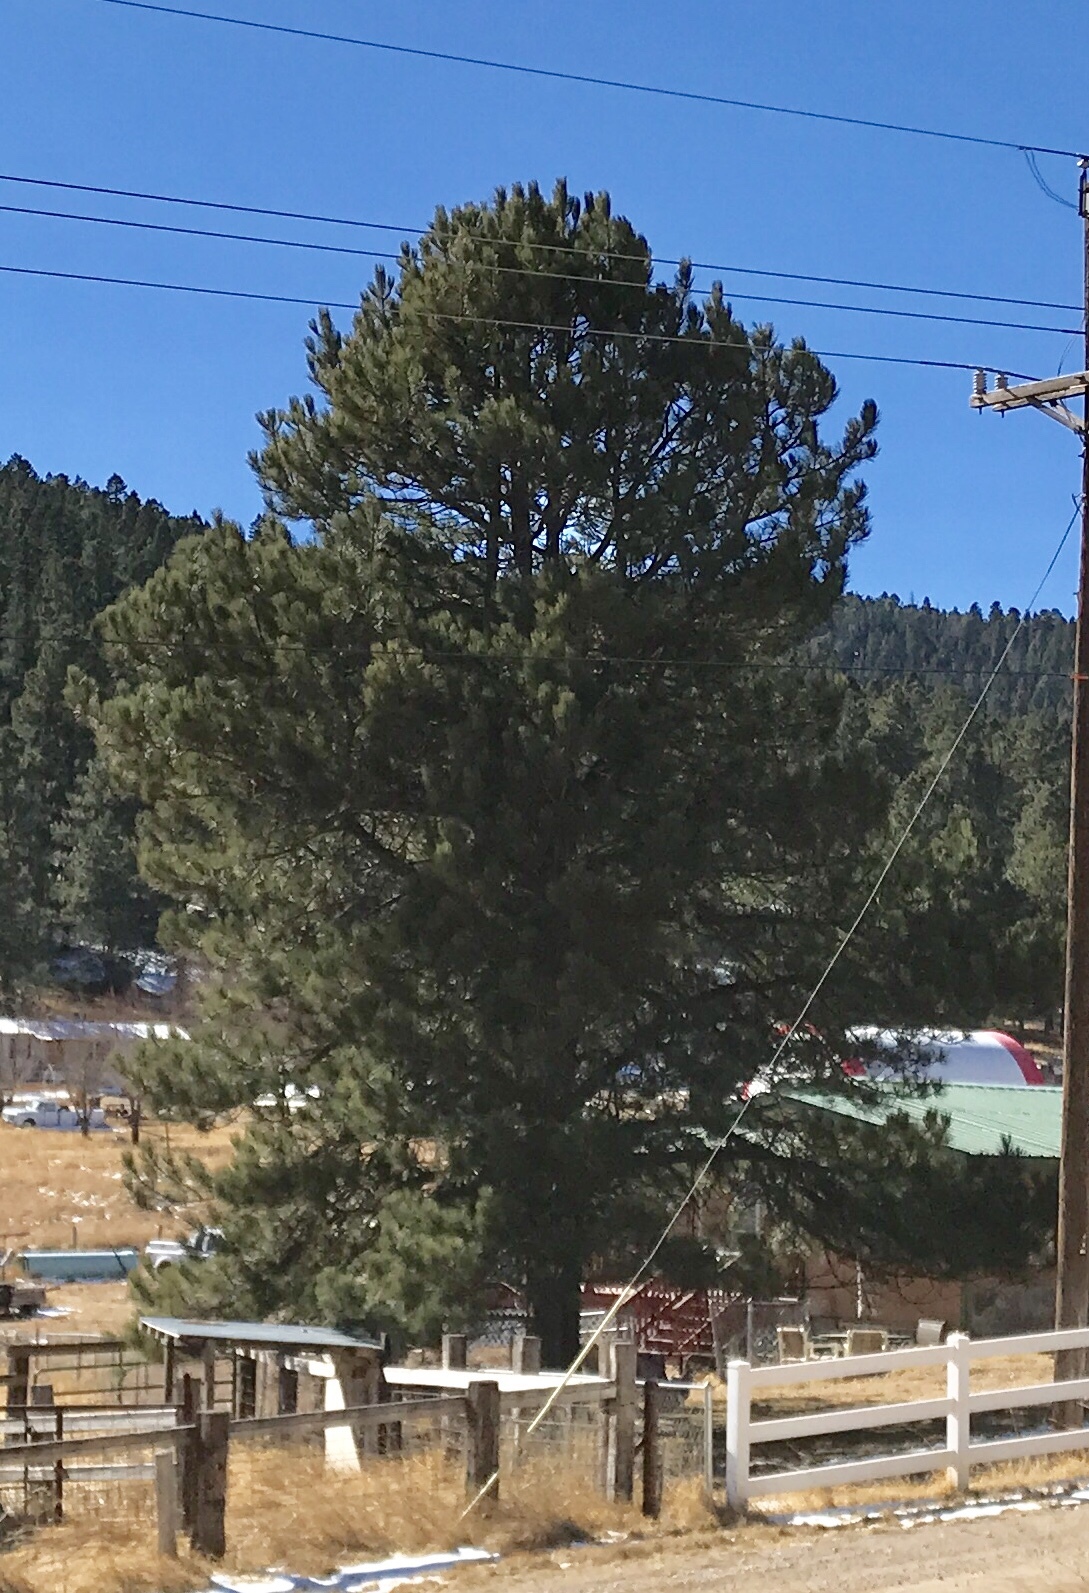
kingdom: Plantae
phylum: Tracheophyta
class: Pinopsida
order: Pinales
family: Pinaceae
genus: Pinus
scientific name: Pinus ponderosa
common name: Western yellow-pine
